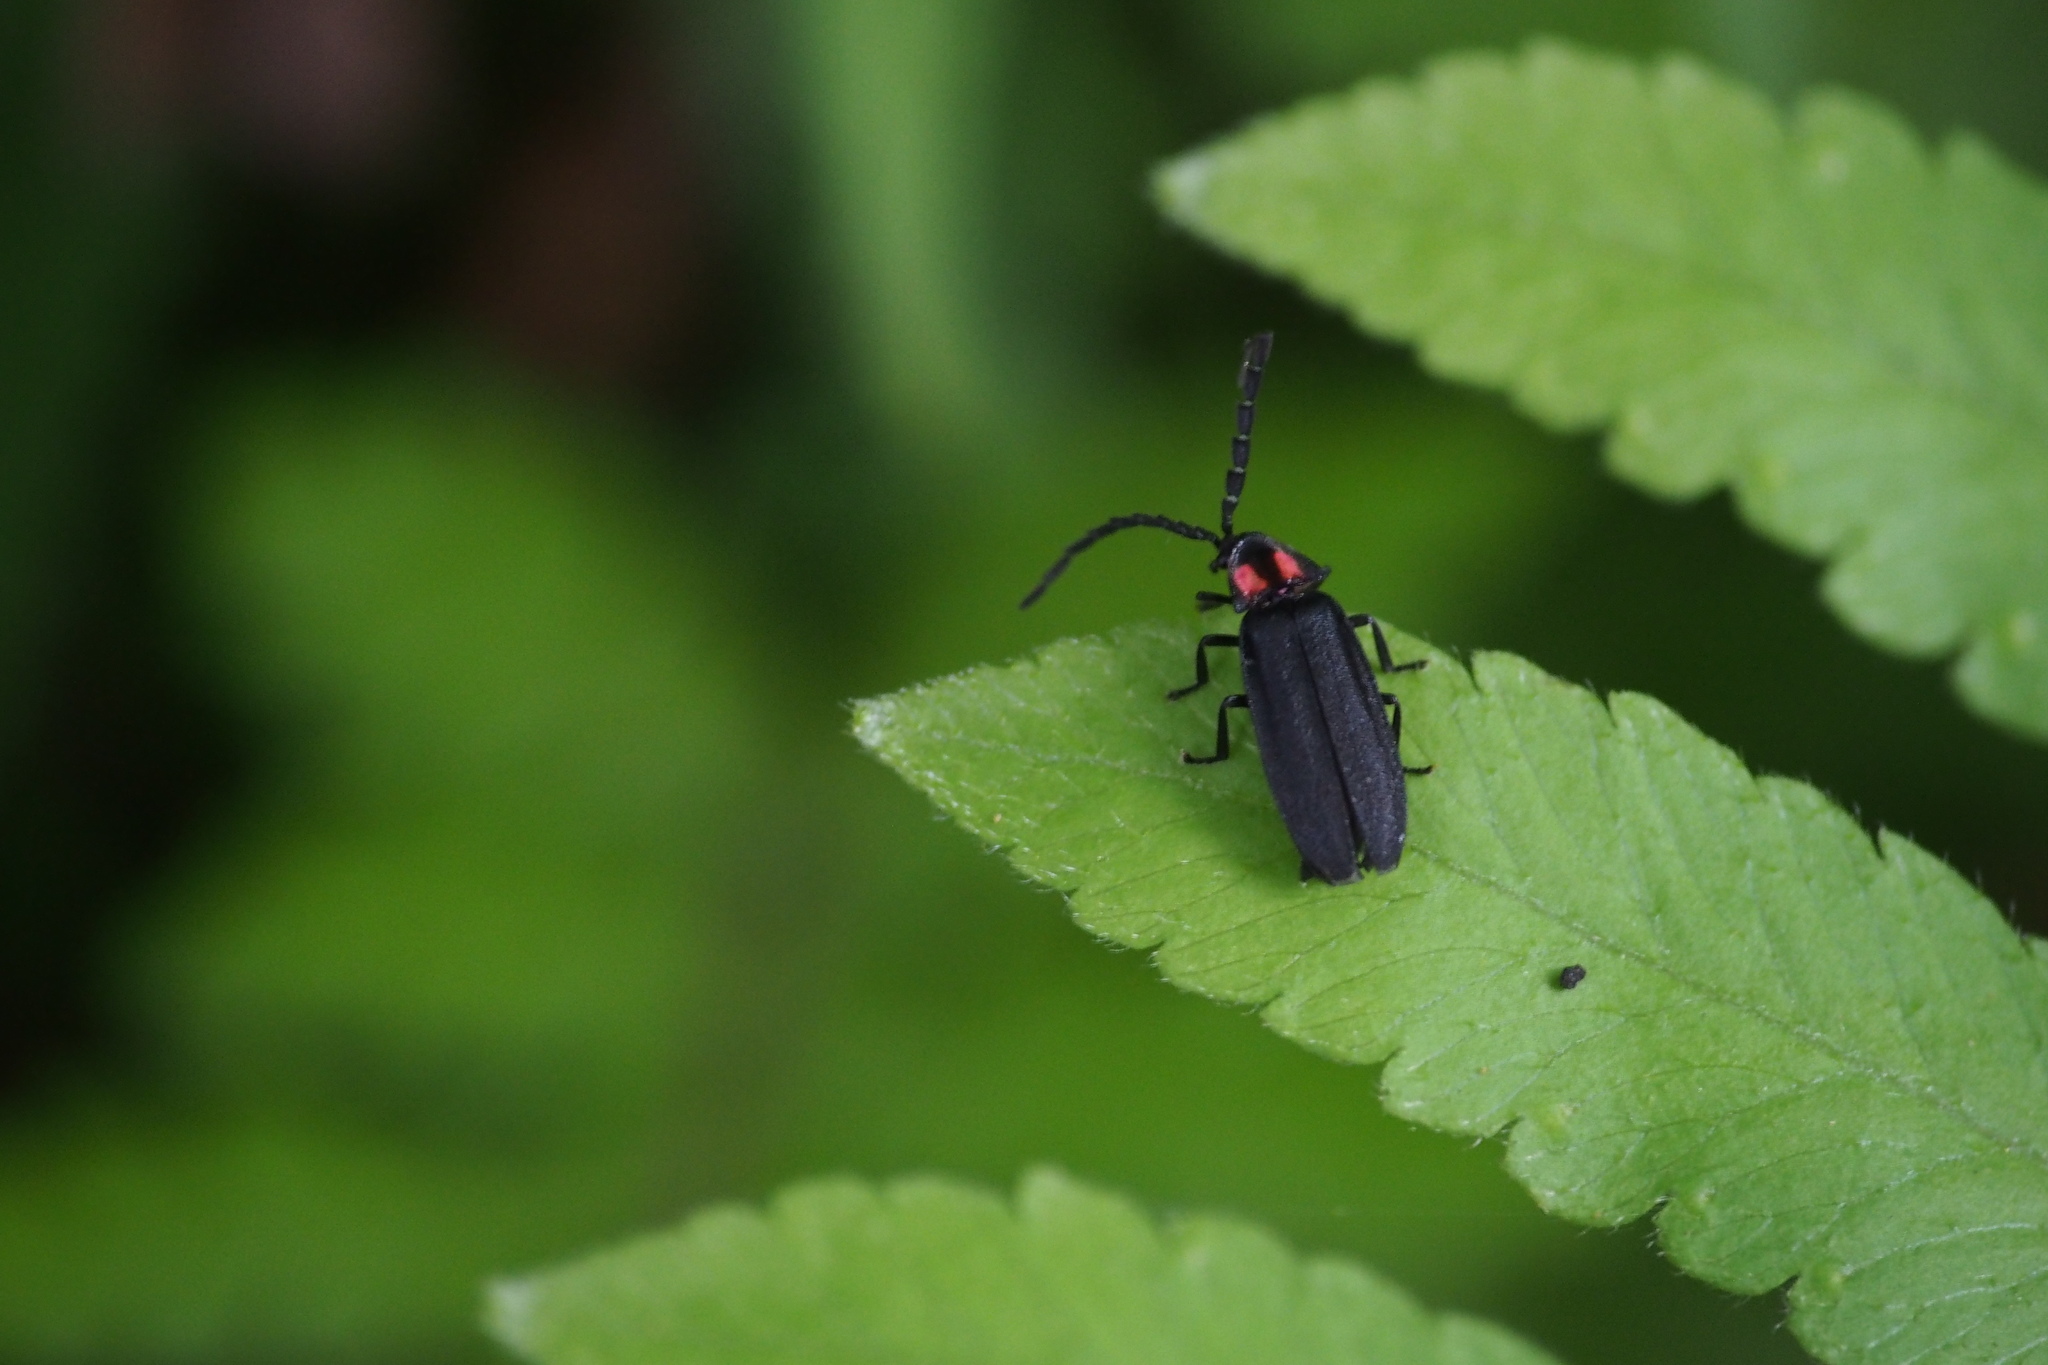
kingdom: Animalia
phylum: Arthropoda
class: Insecta
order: Coleoptera
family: Lampyridae
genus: Lucidina
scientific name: Lucidina biplagiata
